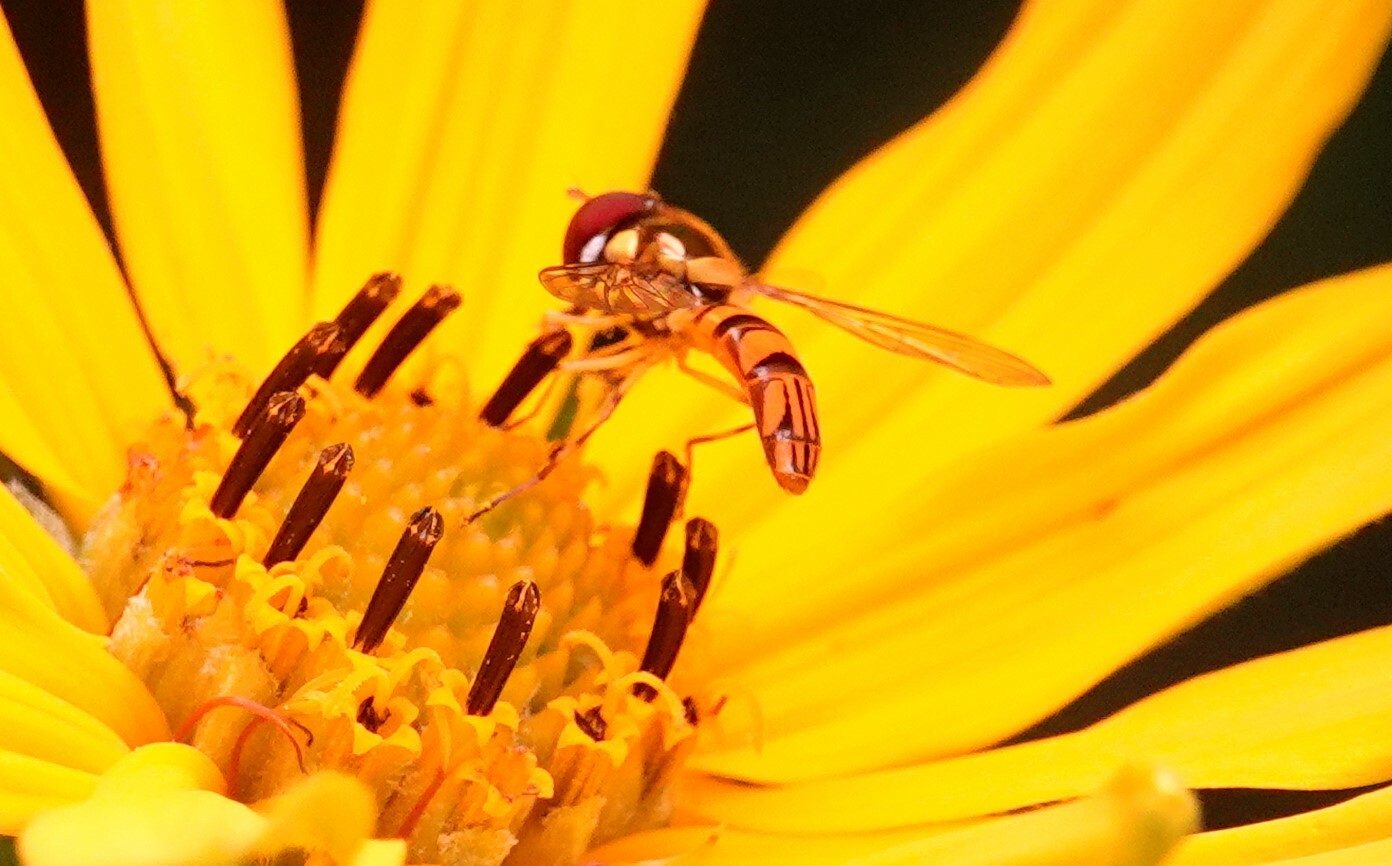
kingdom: Animalia
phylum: Arthropoda
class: Insecta
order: Diptera
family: Syrphidae
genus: Allograpta
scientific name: Allograpta obliqua
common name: Common oblique syrphid
